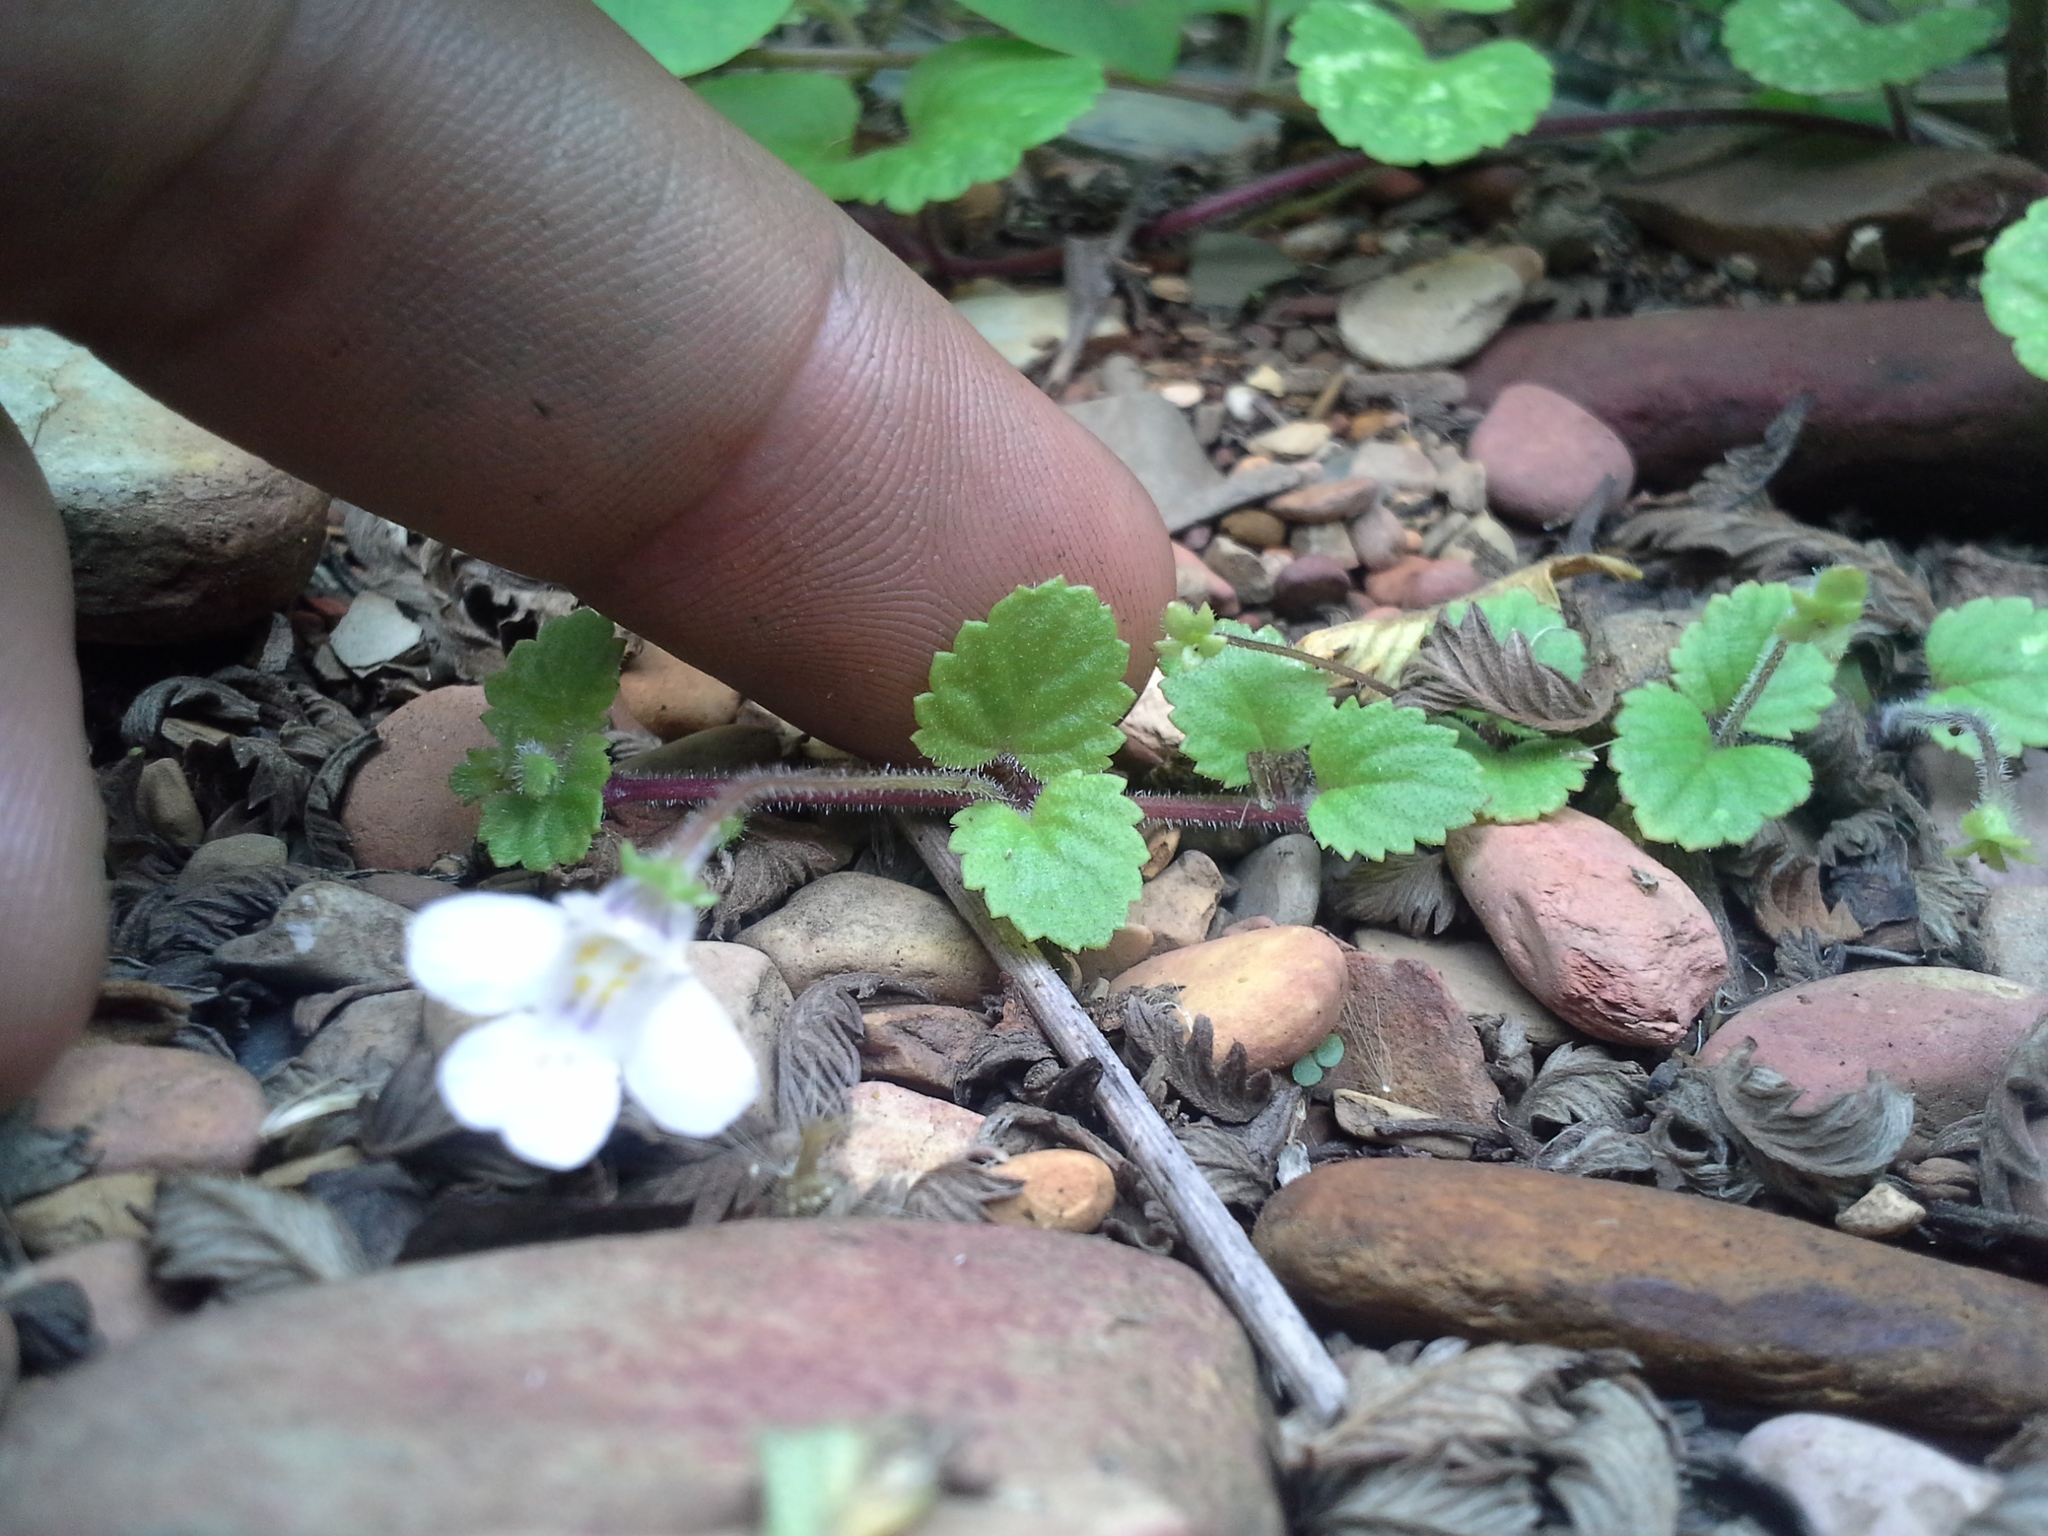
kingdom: Plantae
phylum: Tracheophyta
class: Magnoliopsida
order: Lamiales
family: Scrophulariaceae
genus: Diclis
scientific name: Diclis reptans
